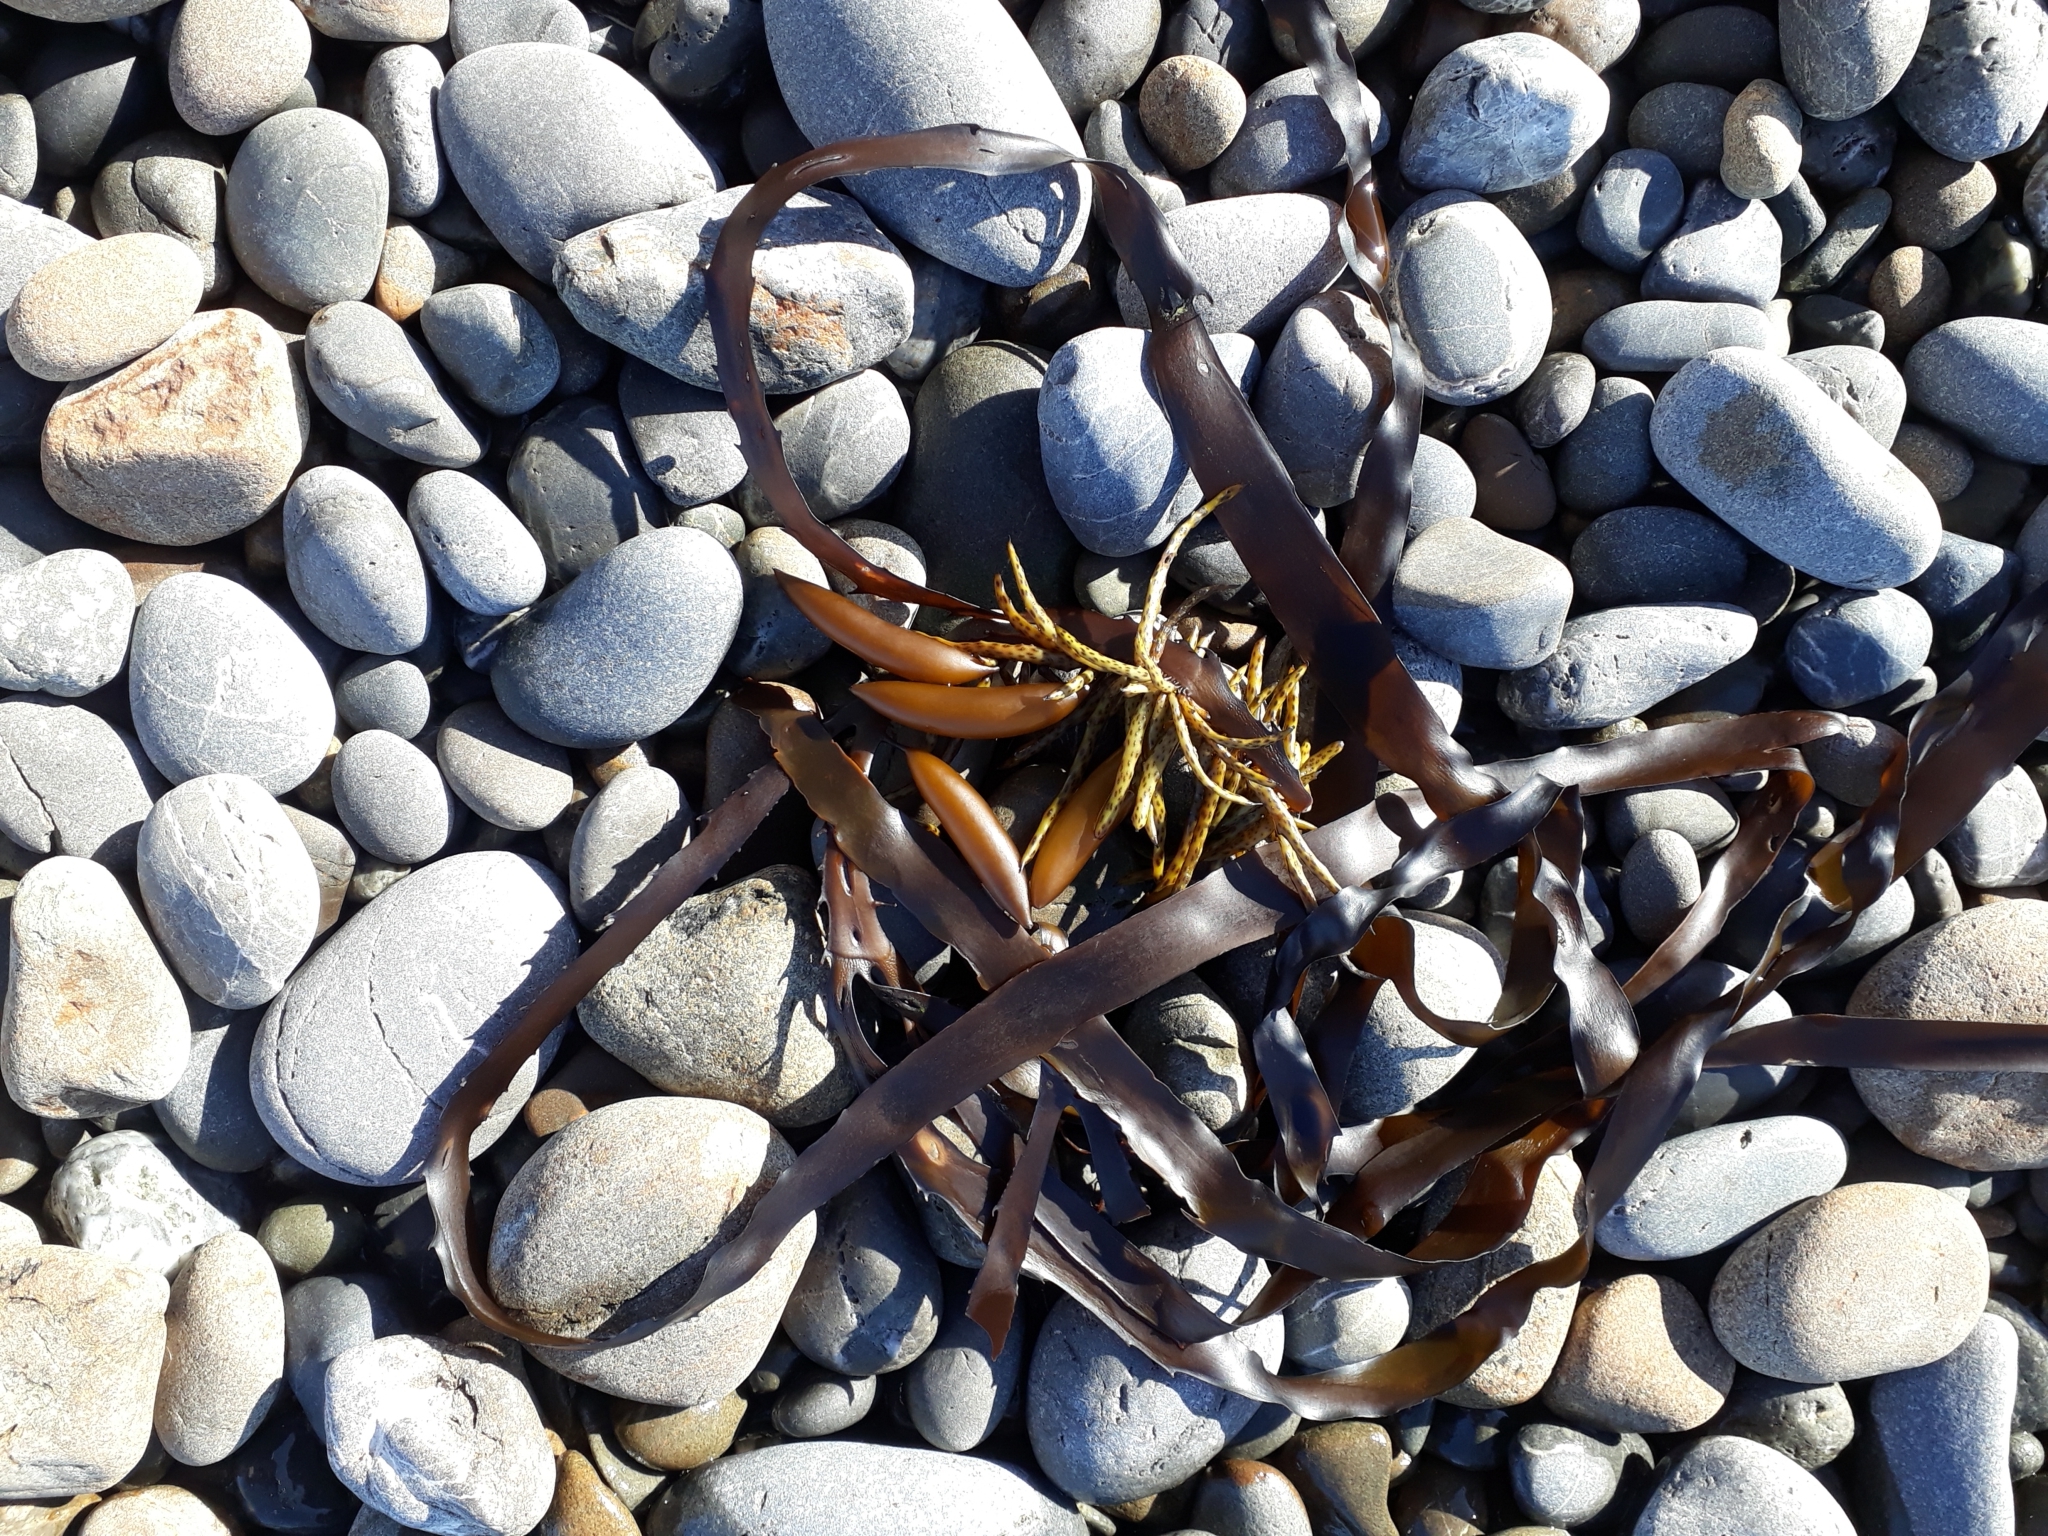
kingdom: Chromista
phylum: Ochrophyta
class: Phaeophyceae
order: Fucales
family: Seirococcaceae
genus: Marginariella
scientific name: Marginariella boryana
